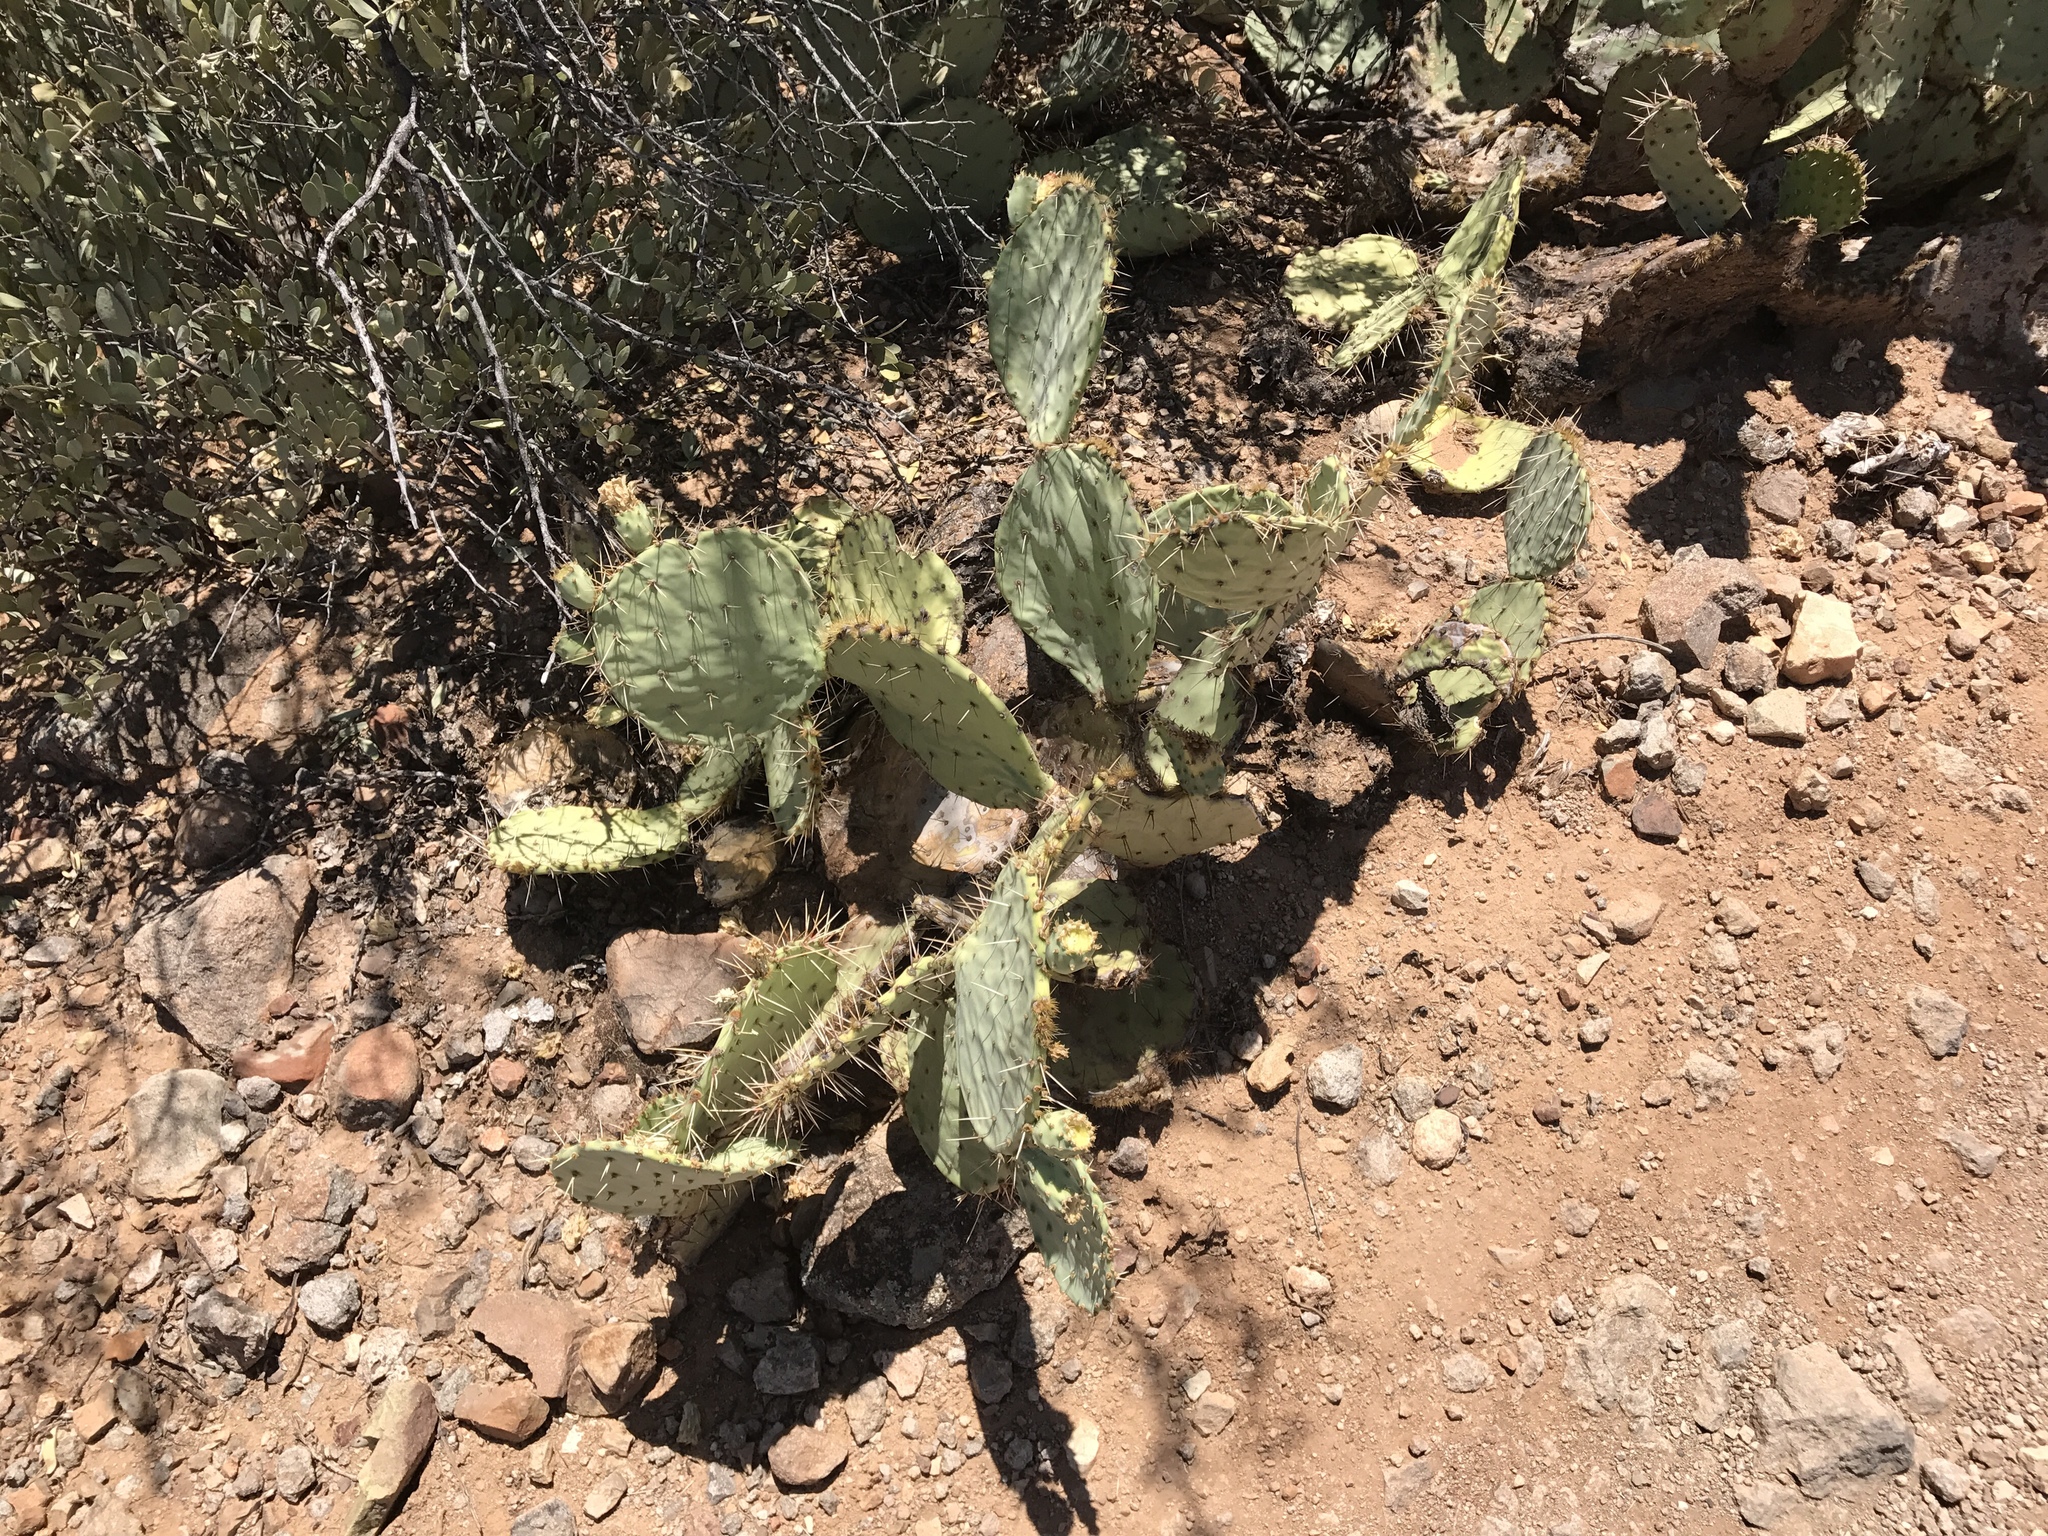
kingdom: Plantae
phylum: Tracheophyta
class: Magnoliopsida
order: Caryophyllales
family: Cactaceae
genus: Opuntia
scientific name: Opuntia engelmannii
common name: Cactus-apple
